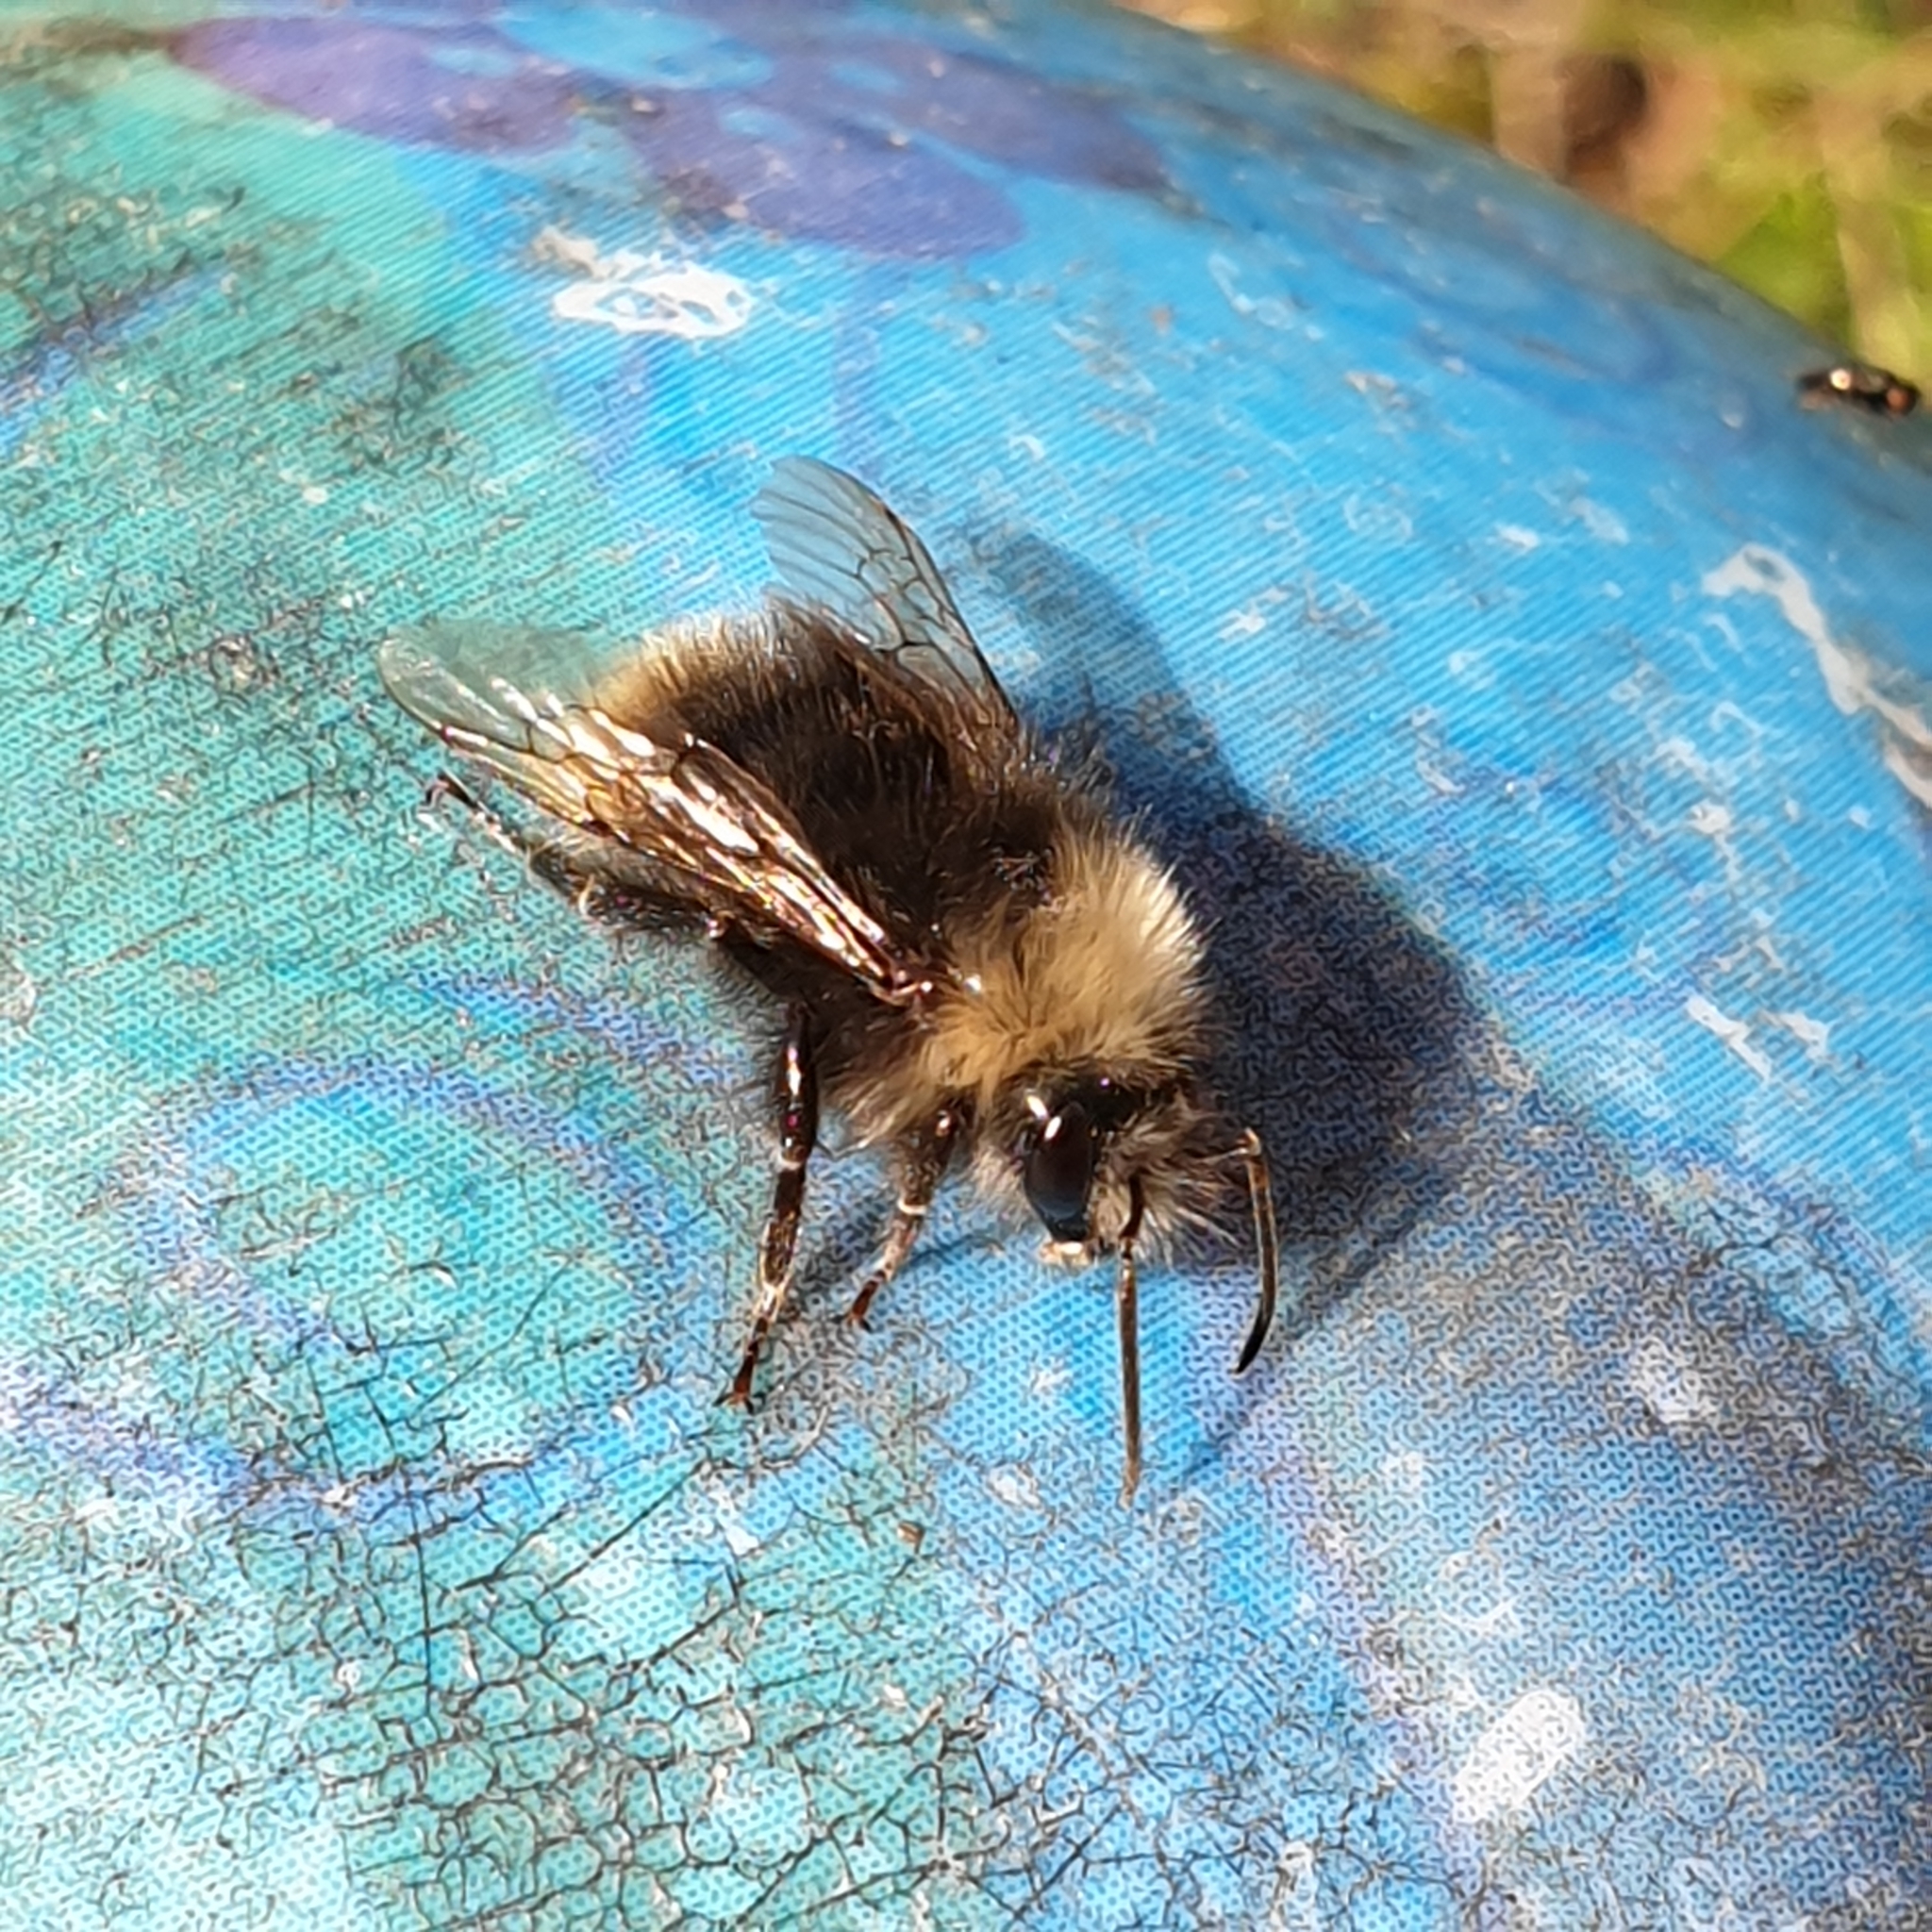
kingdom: Animalia
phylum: Arthropoda
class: Insecta
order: Hymenoptera
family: Apidae
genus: Bombus
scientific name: Bombus pratorum
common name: Early humble-bee
